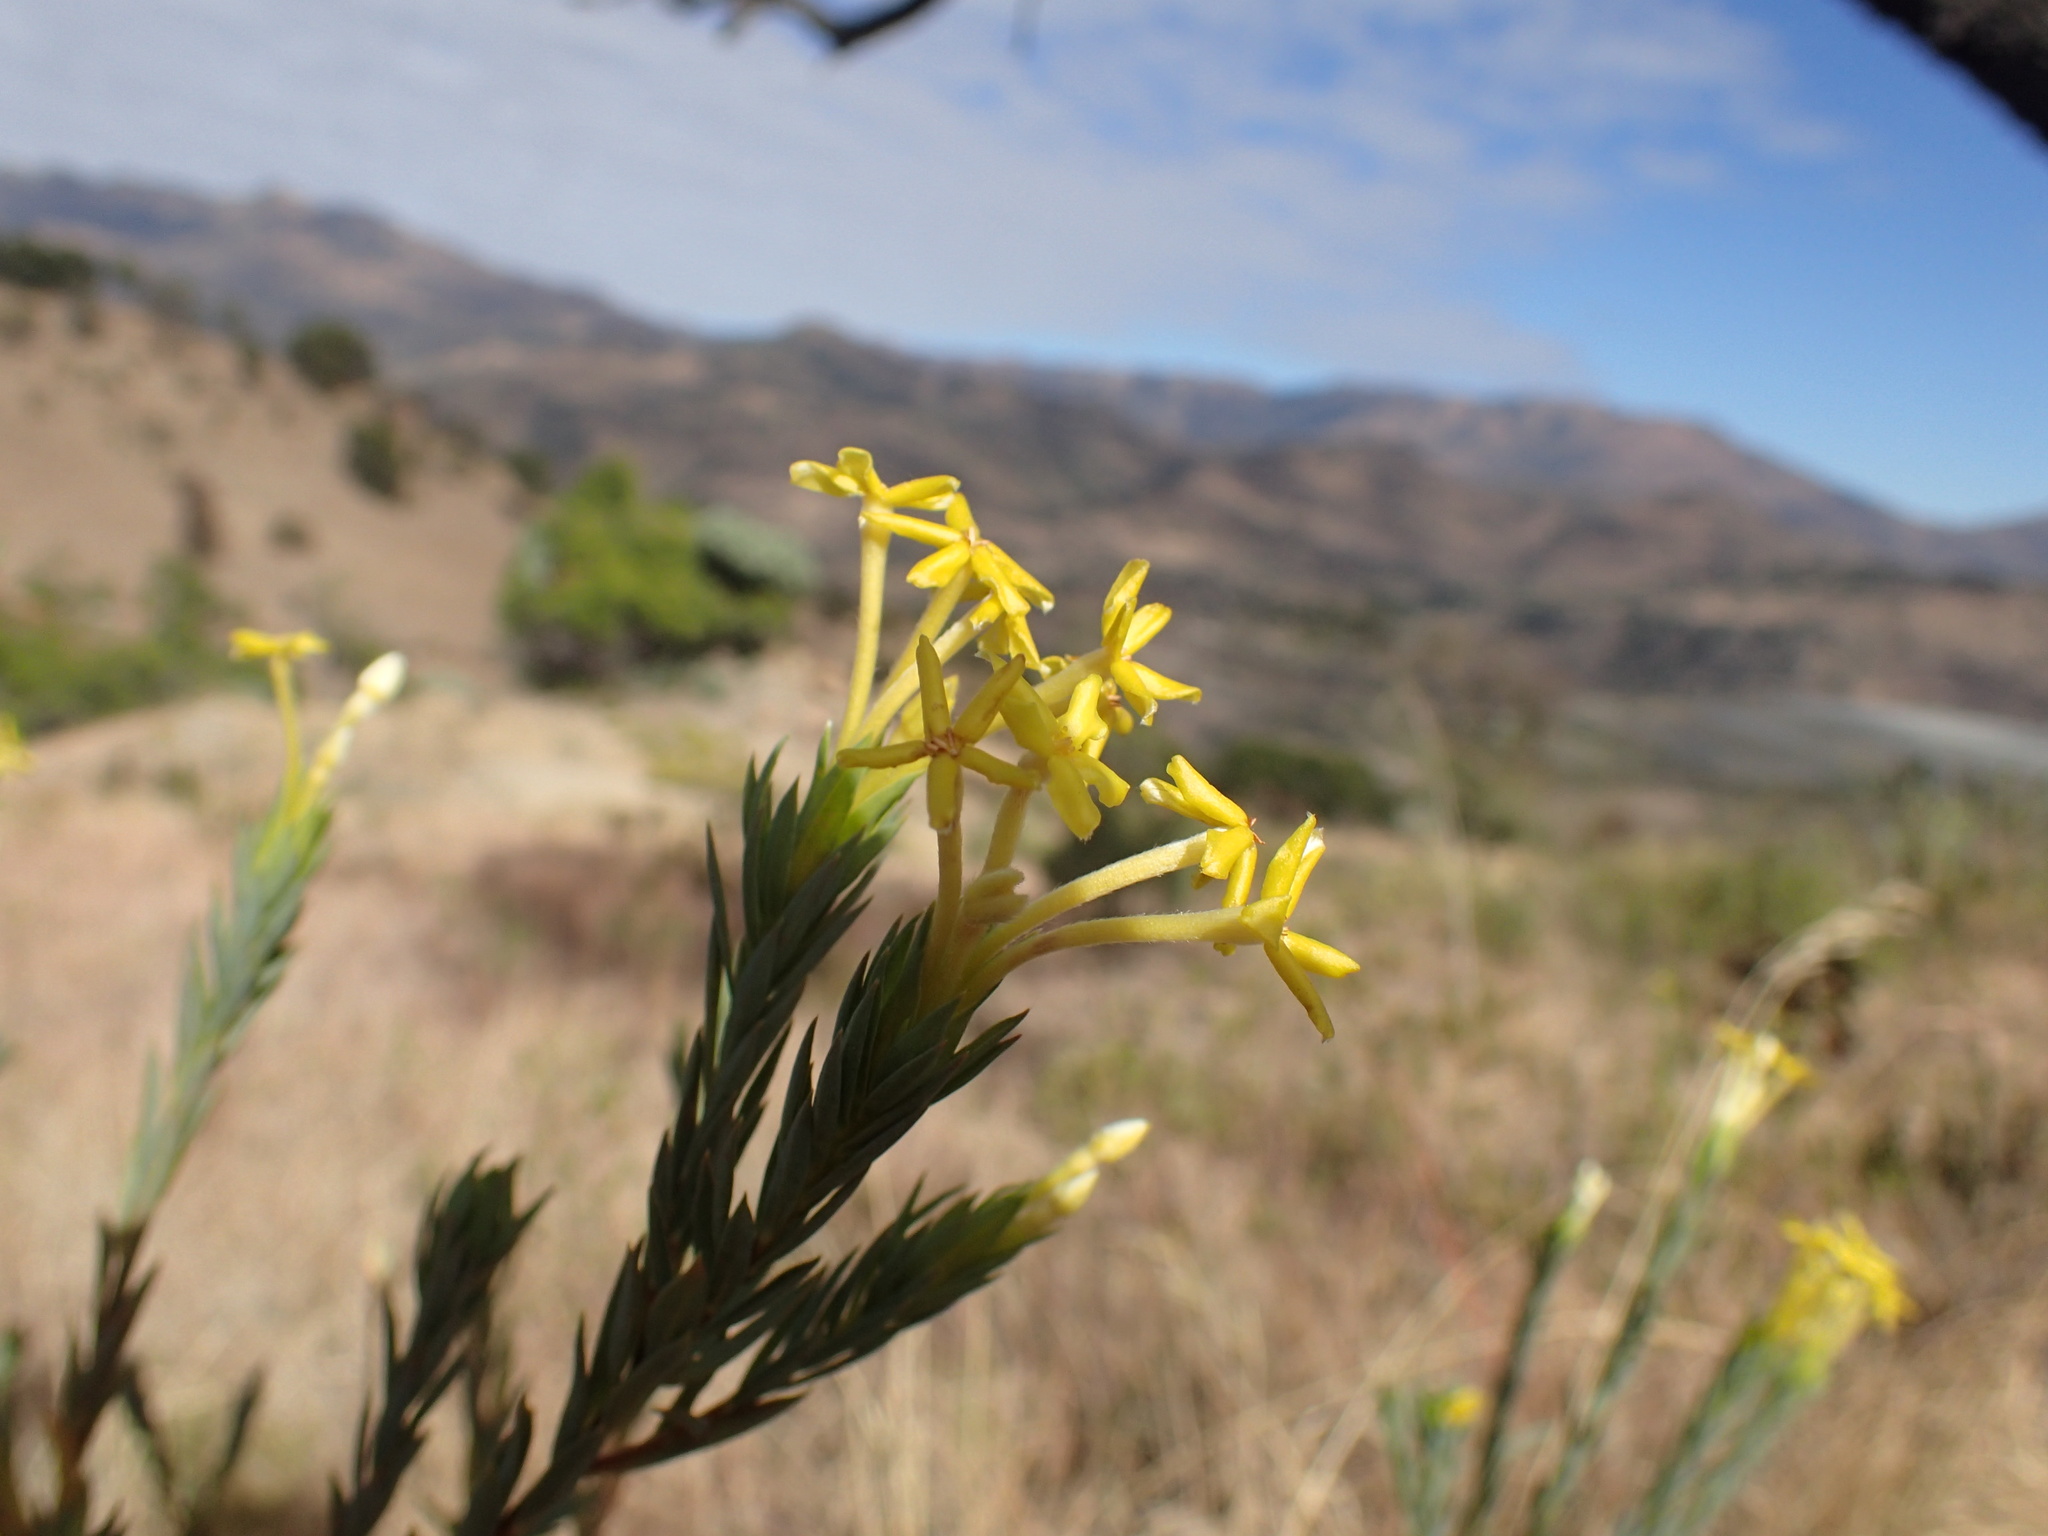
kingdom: Plantae
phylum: Tracheophyta
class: Magnoliopsida
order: Malvales
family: Thymelaeaceae
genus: Gnidia
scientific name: Gnidia caffra
